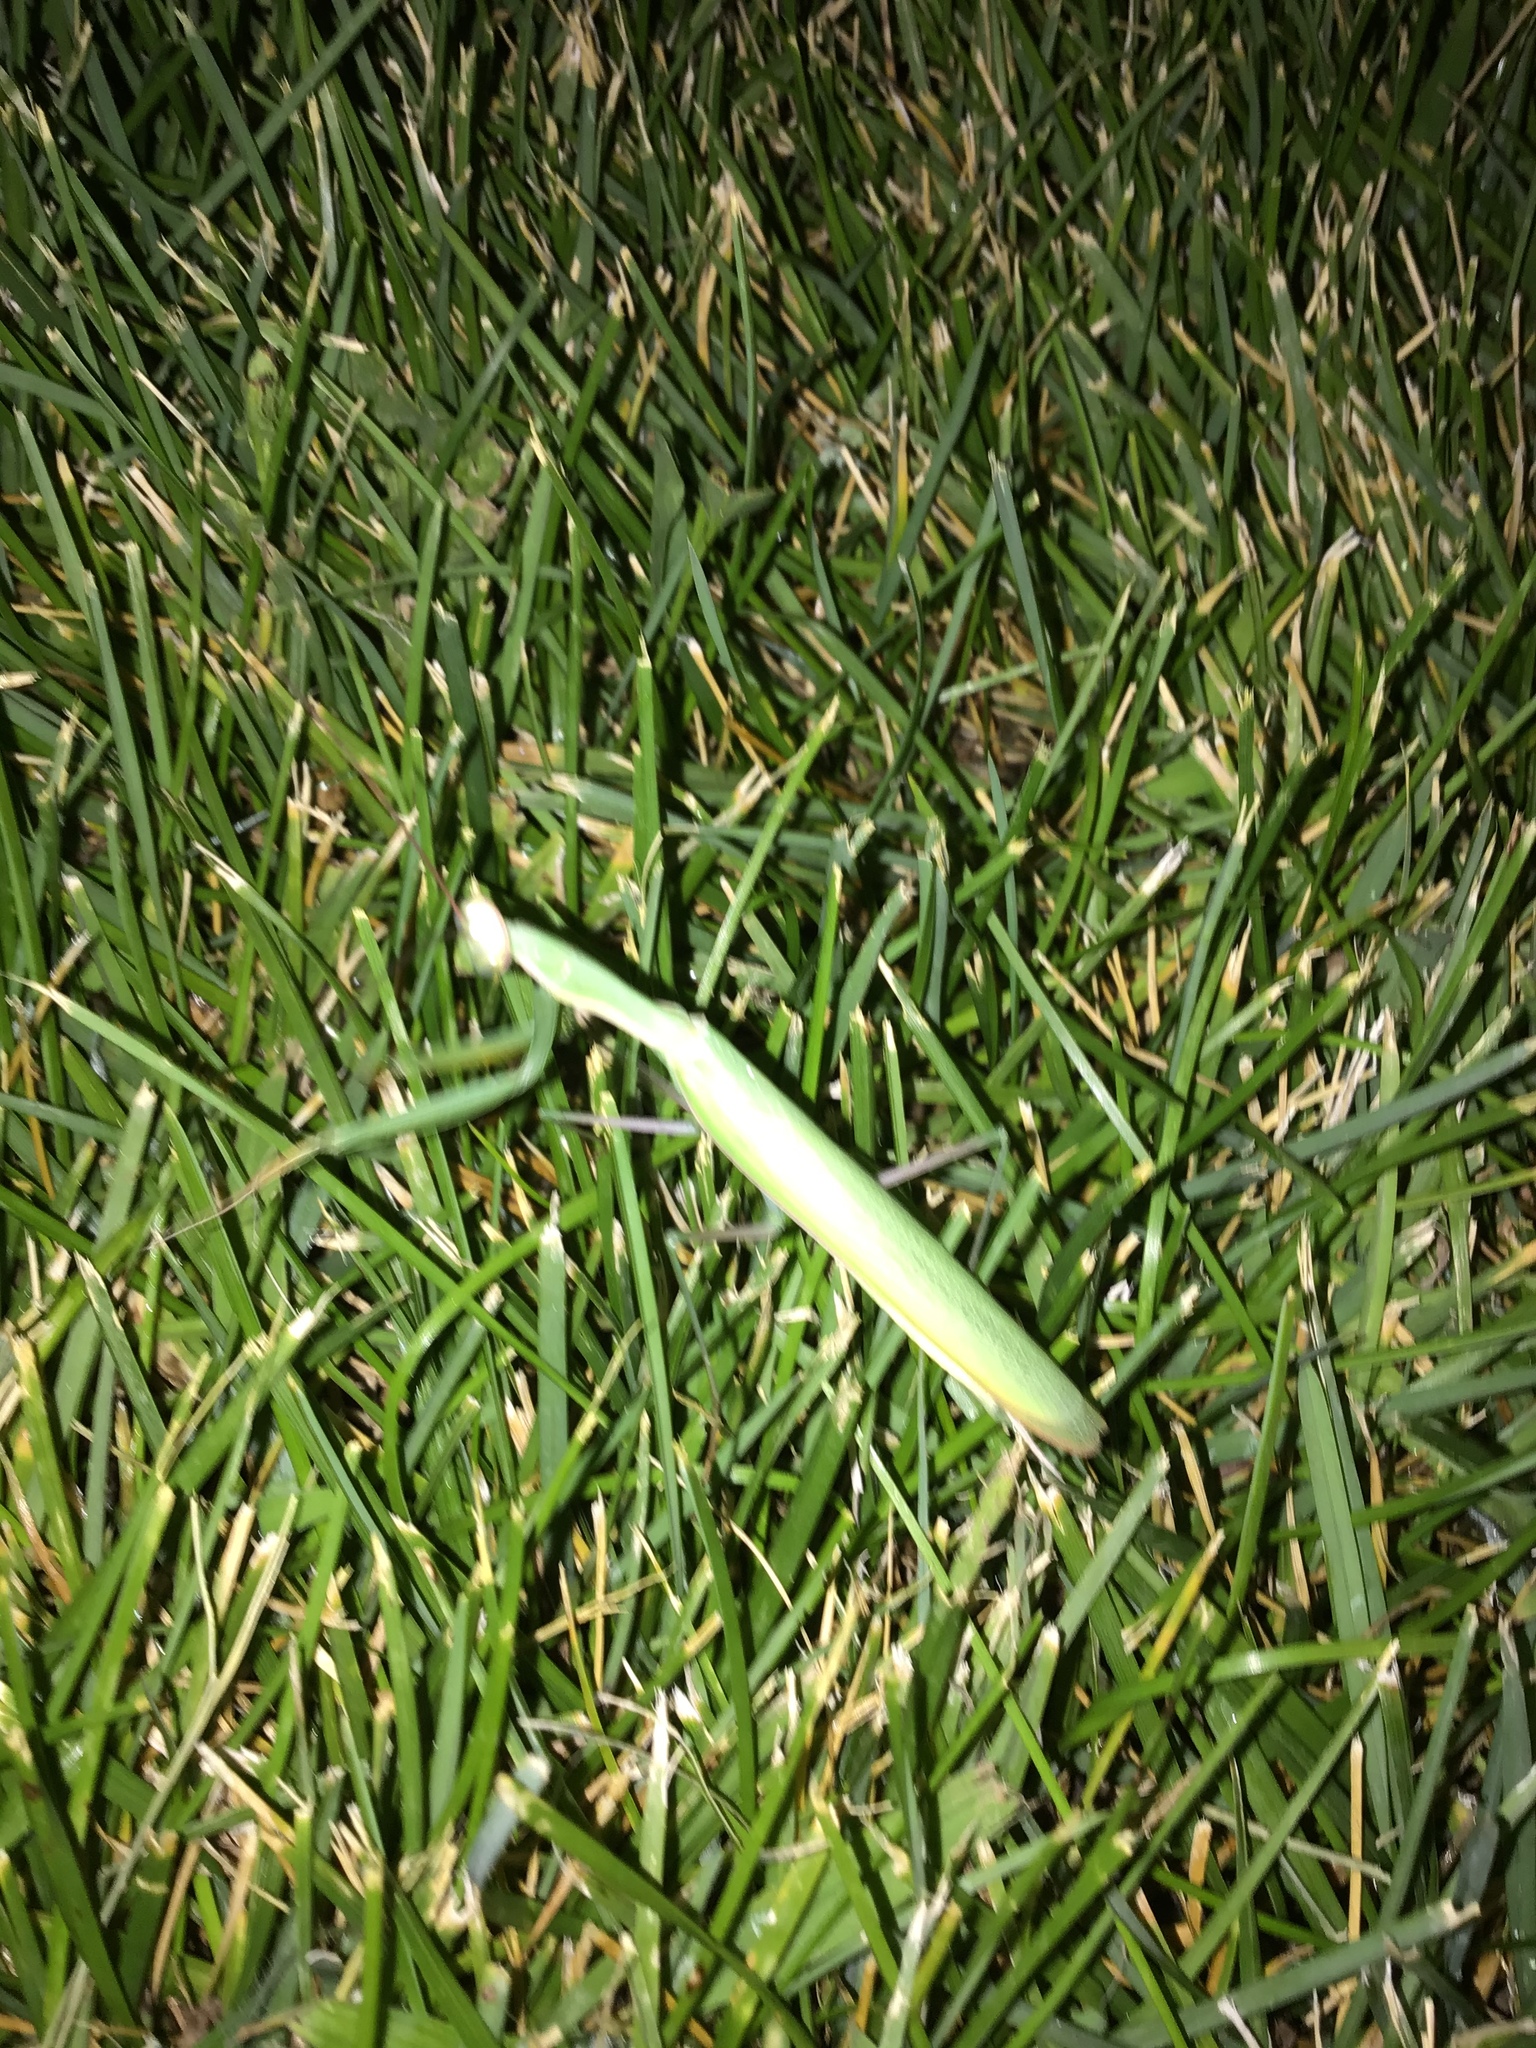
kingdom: Animalia
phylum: Arthropoda
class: Insecta
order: Mantodea
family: Mantidae
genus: Mantis
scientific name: Mantis religiosa
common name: Praying mantis
